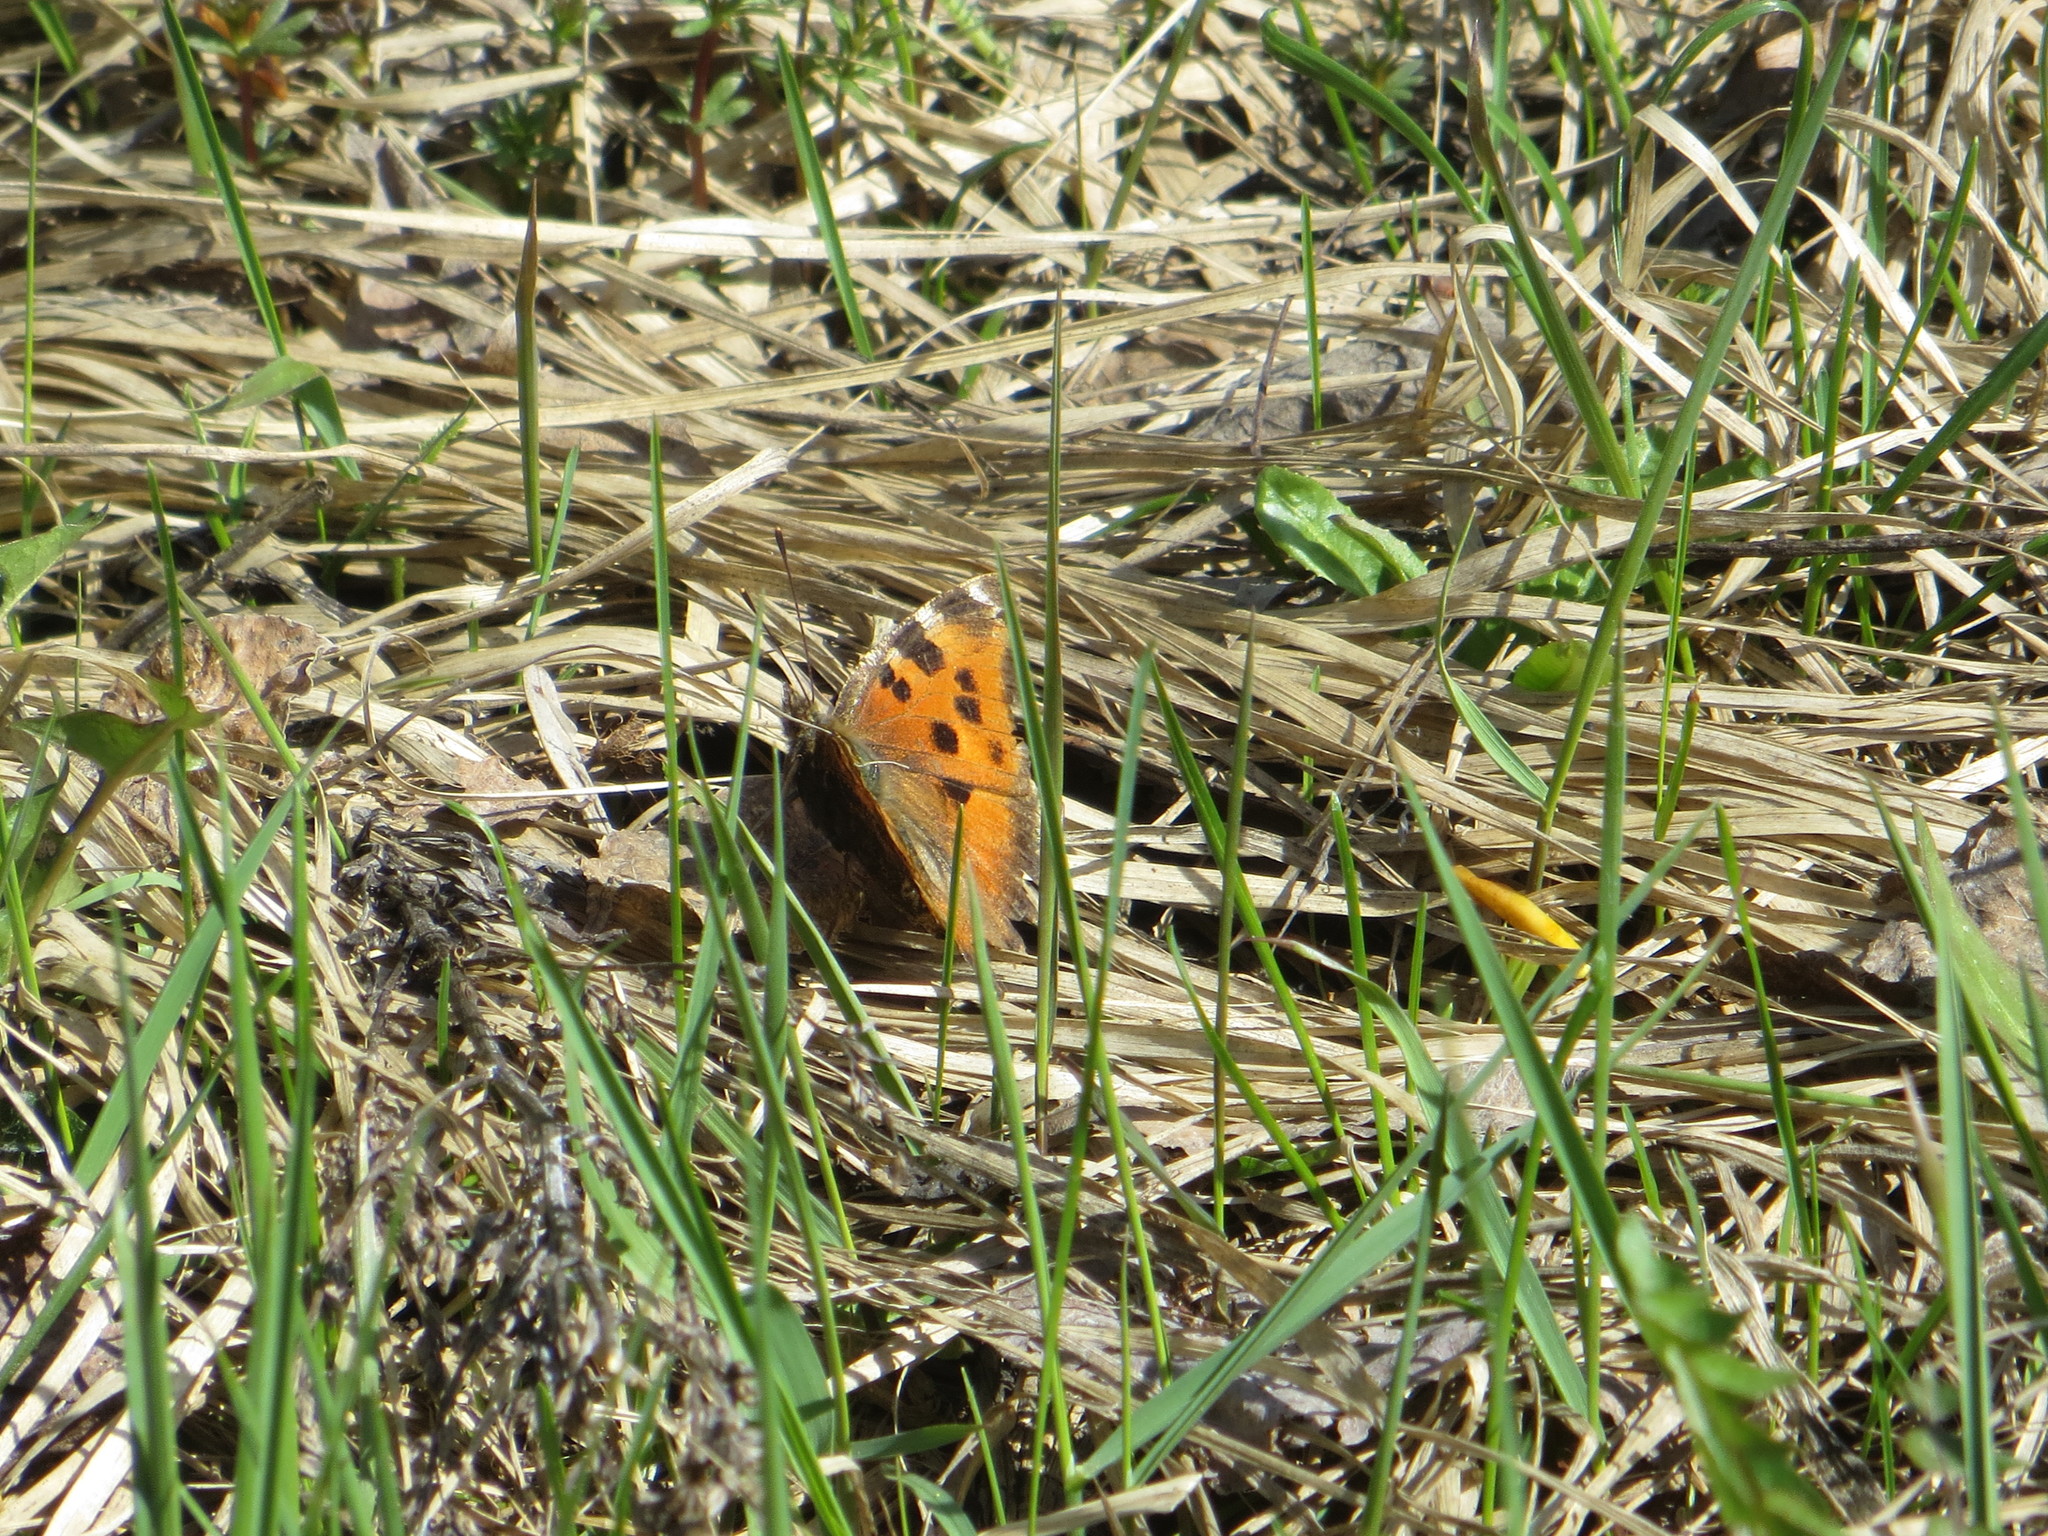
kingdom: Animalia
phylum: Arthropoda
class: Insecta
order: Lepidoptera
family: Nymphalidae
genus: Nymphalis
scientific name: Nymphalis xanthomelas
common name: Scarce tortoiseshell
